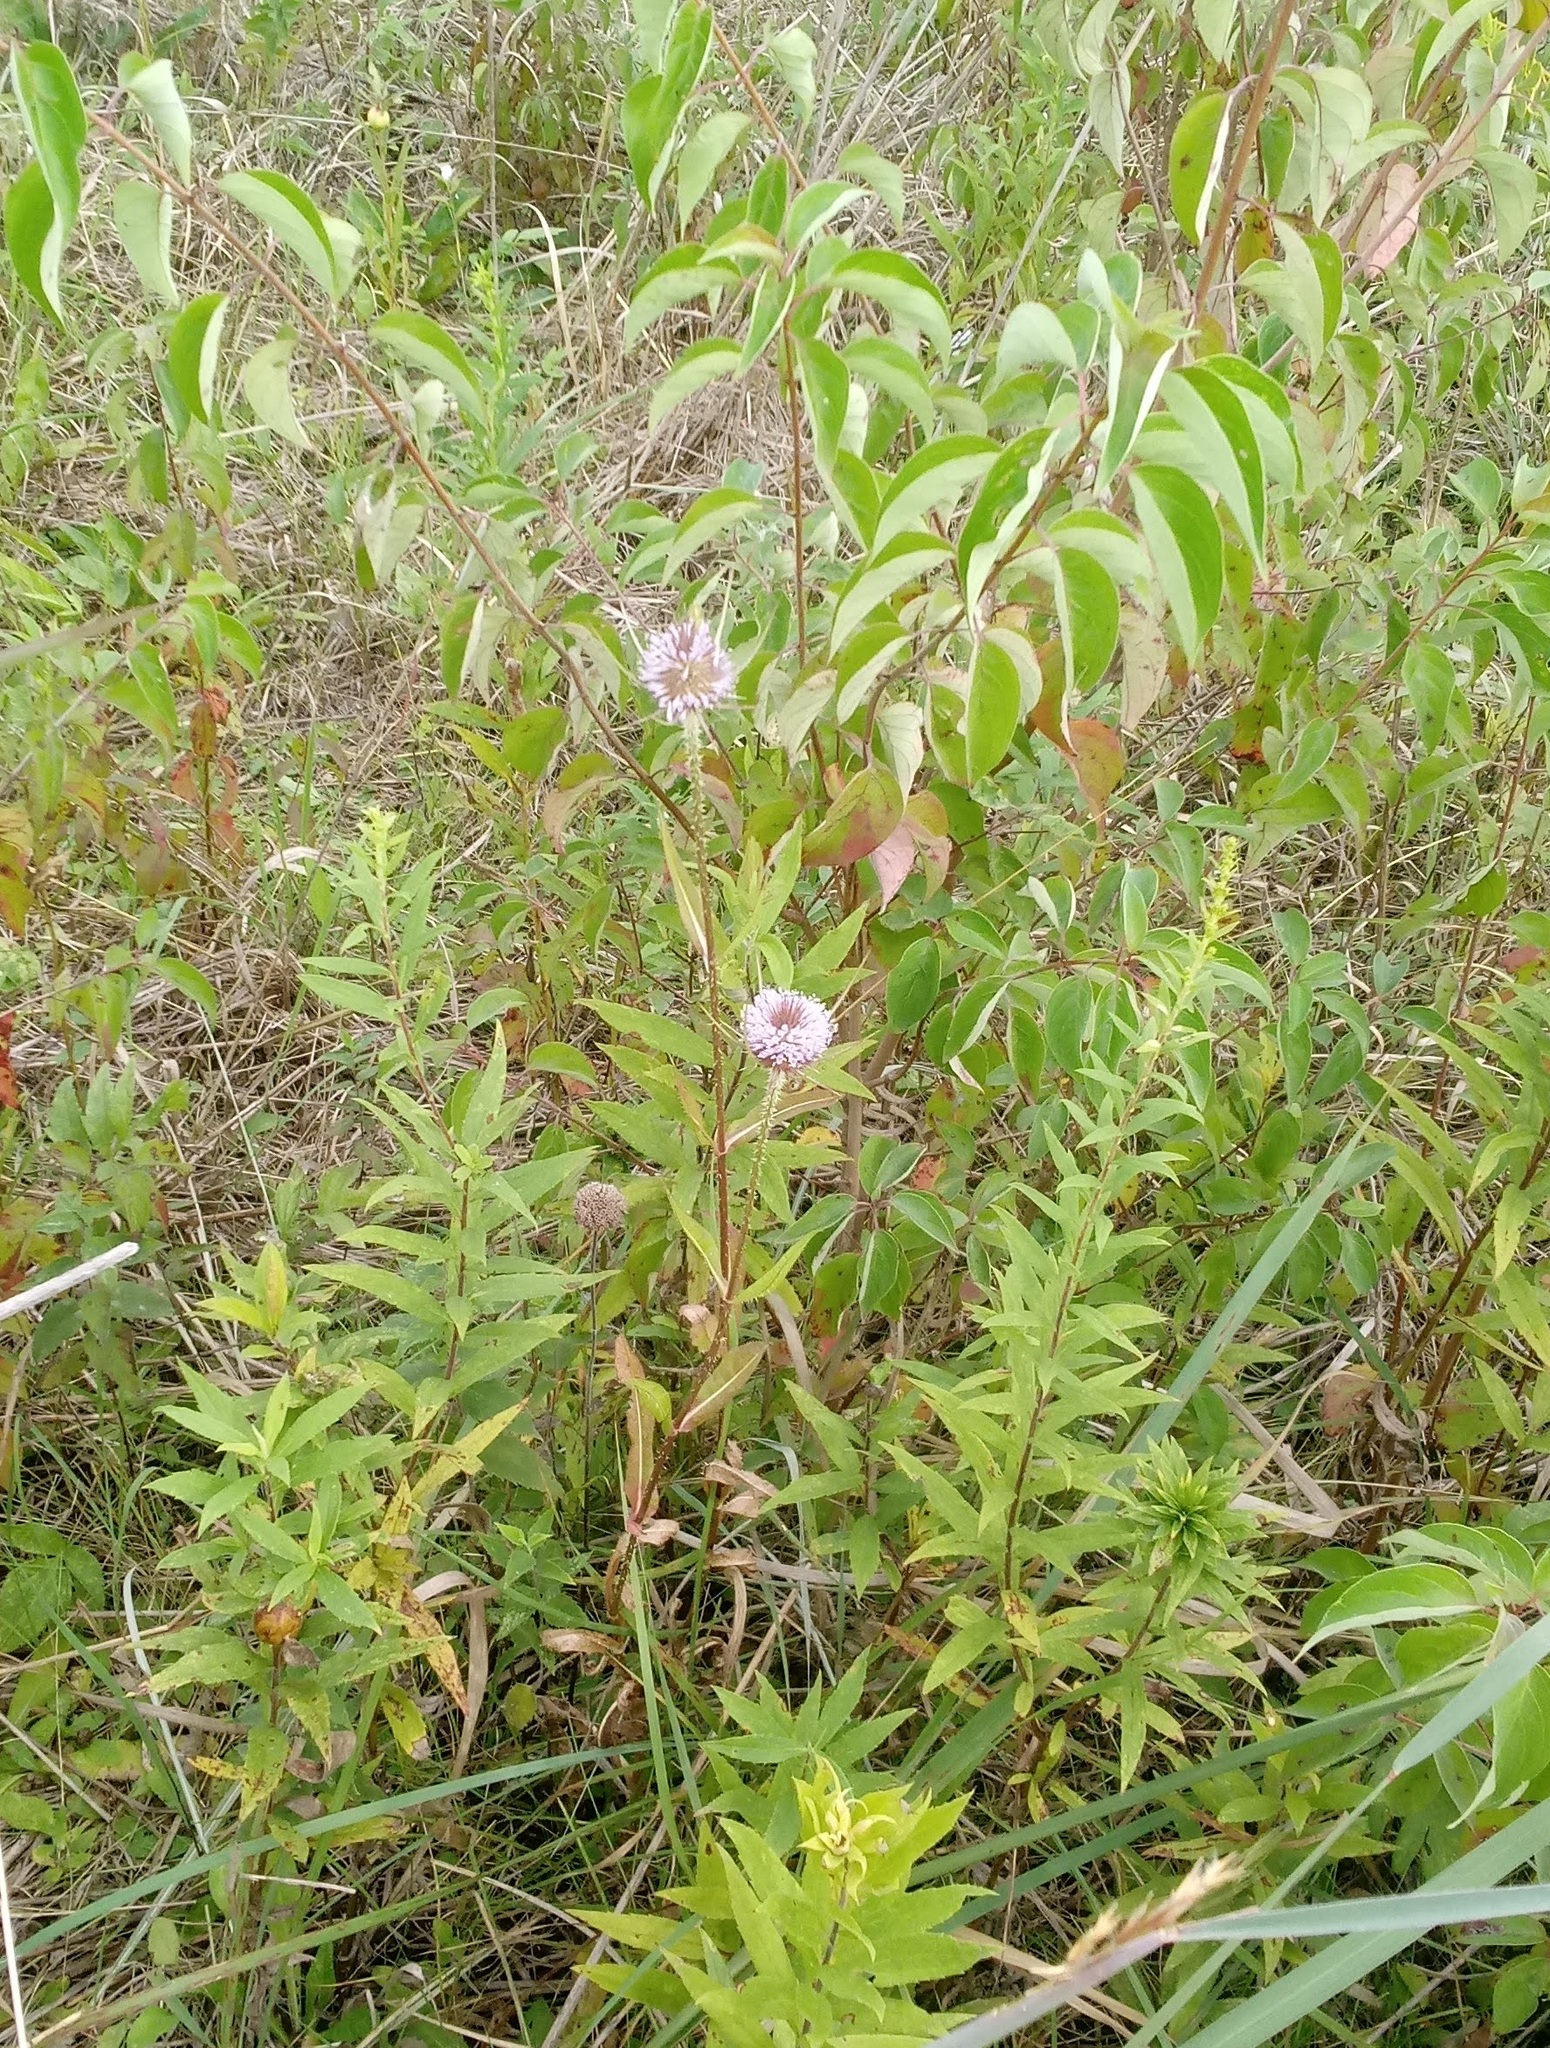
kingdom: Plantae
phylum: Tracheophyta
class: Magnoliopsida
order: Dipsacales
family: Caprifoliaceae
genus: Dipsacus
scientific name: Dipsacus fullonum
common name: Teasel
